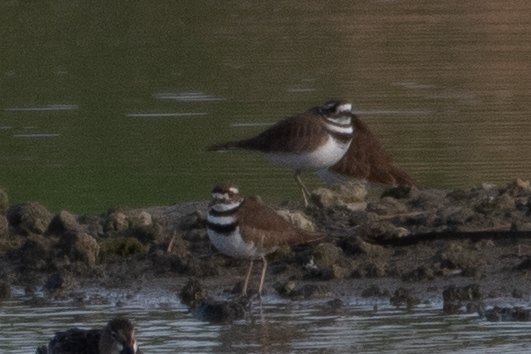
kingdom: Animalia
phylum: Chordata
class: Aves
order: Charadriiformes
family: Charadriidae
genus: Charadrius
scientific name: Charadrius vociferus
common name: Killdeer
